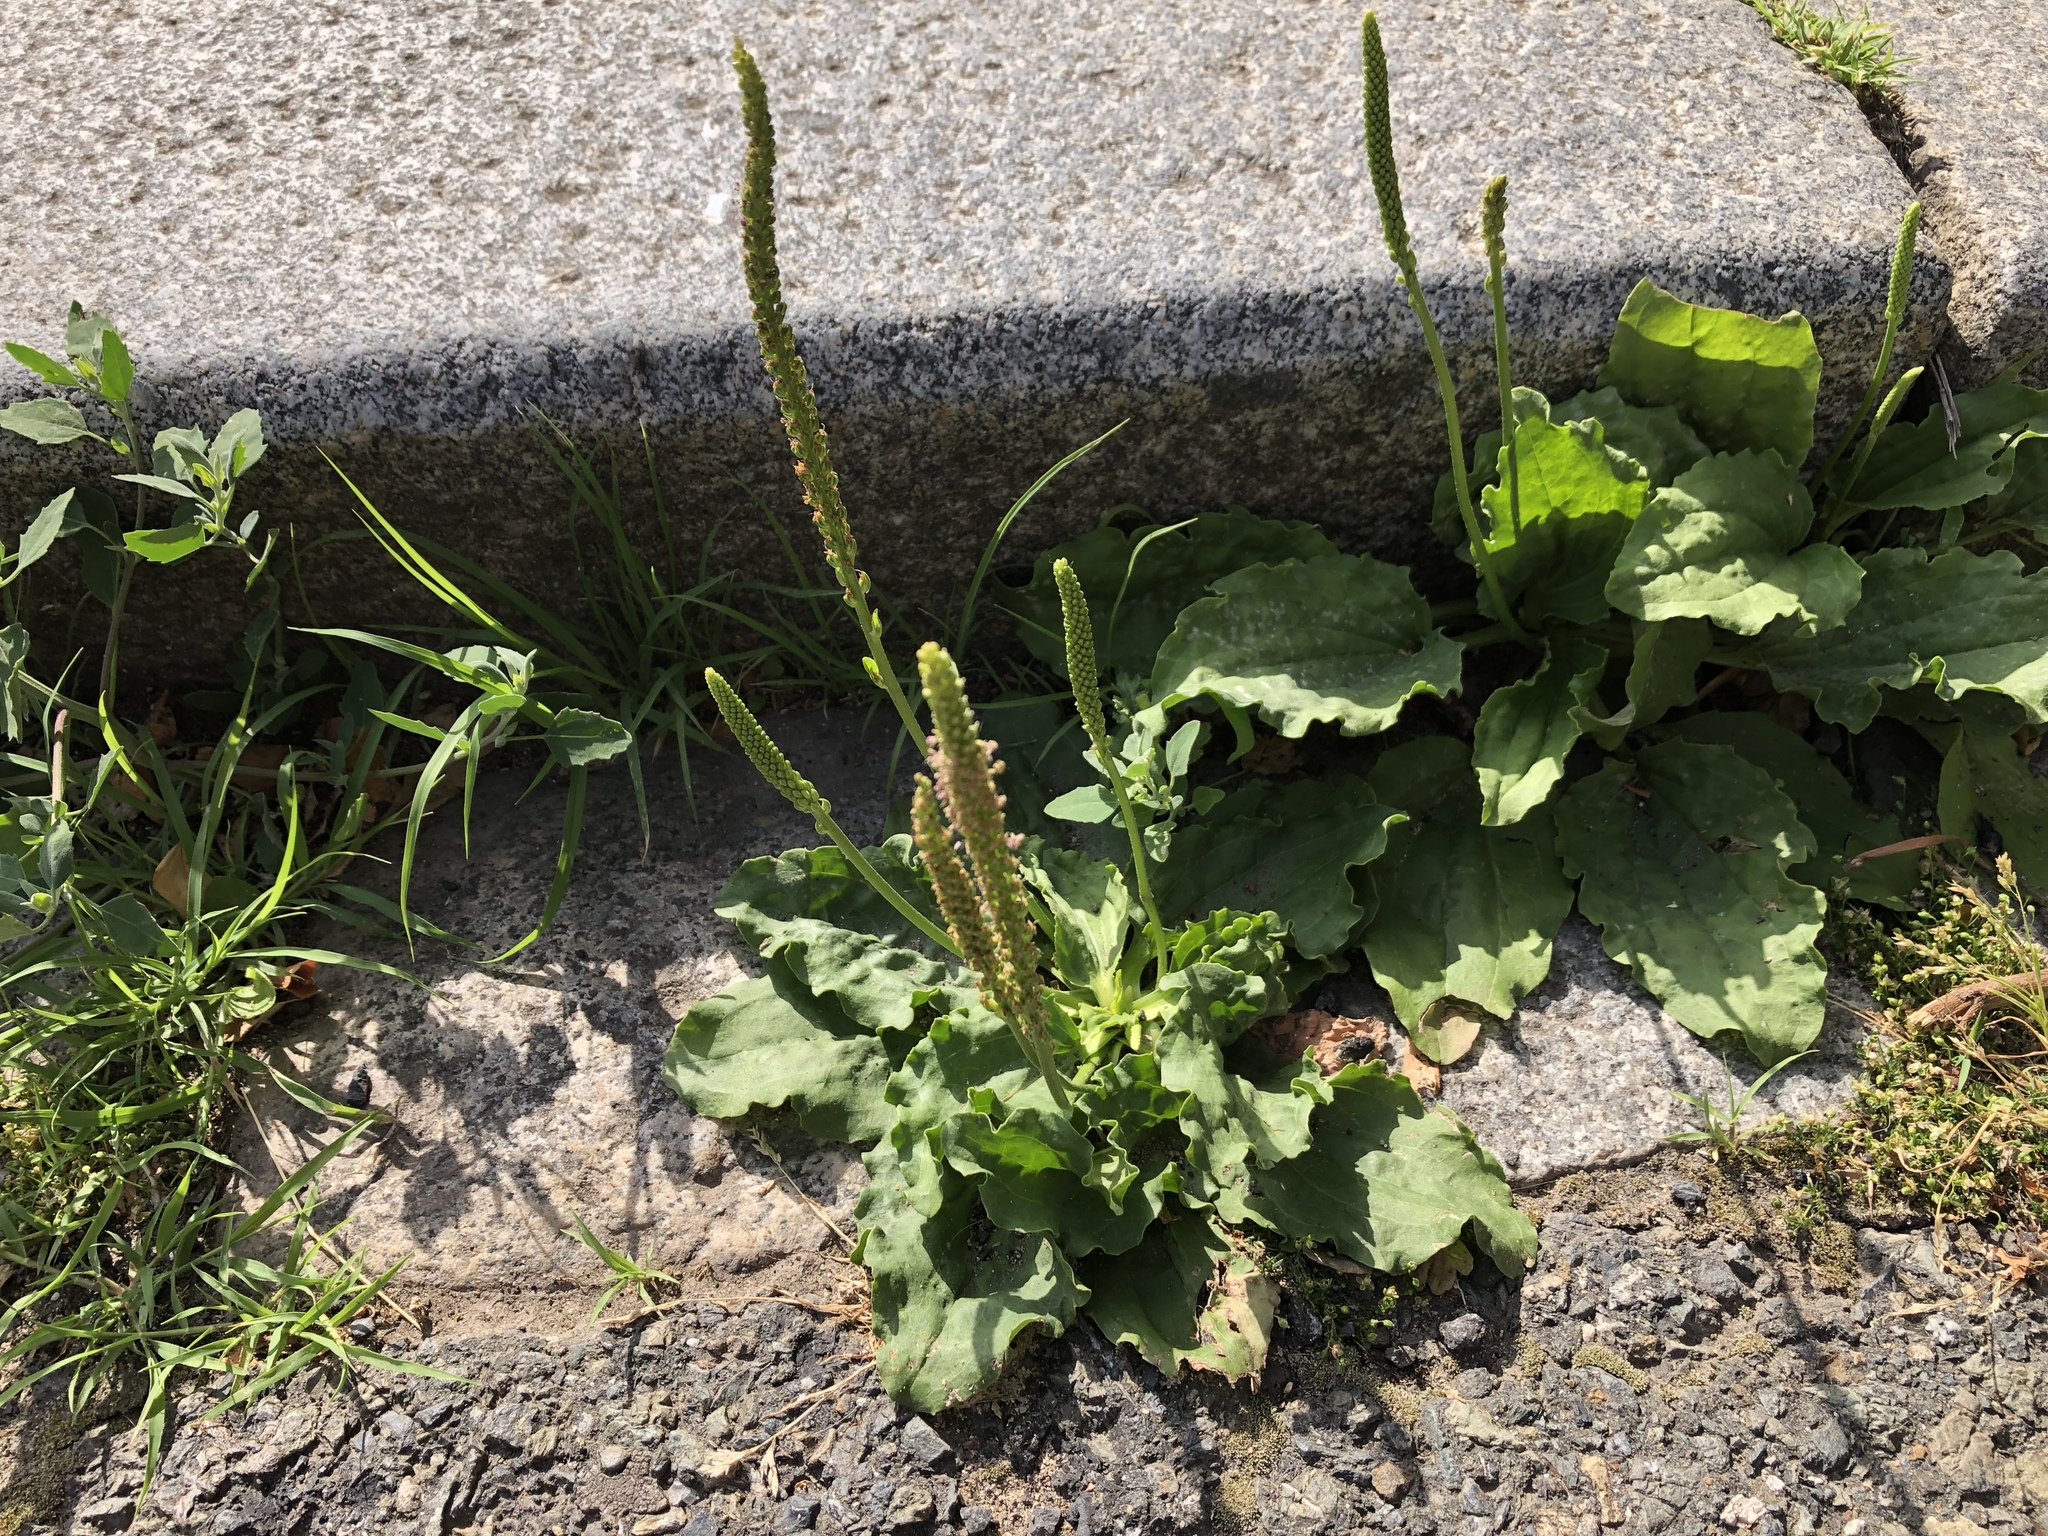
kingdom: Plantae
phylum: Tracheophyta
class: Magnoliopsida
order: Lamiales
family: Plantaginaceae
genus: Plantago
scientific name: Plantago major
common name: Common plantain
